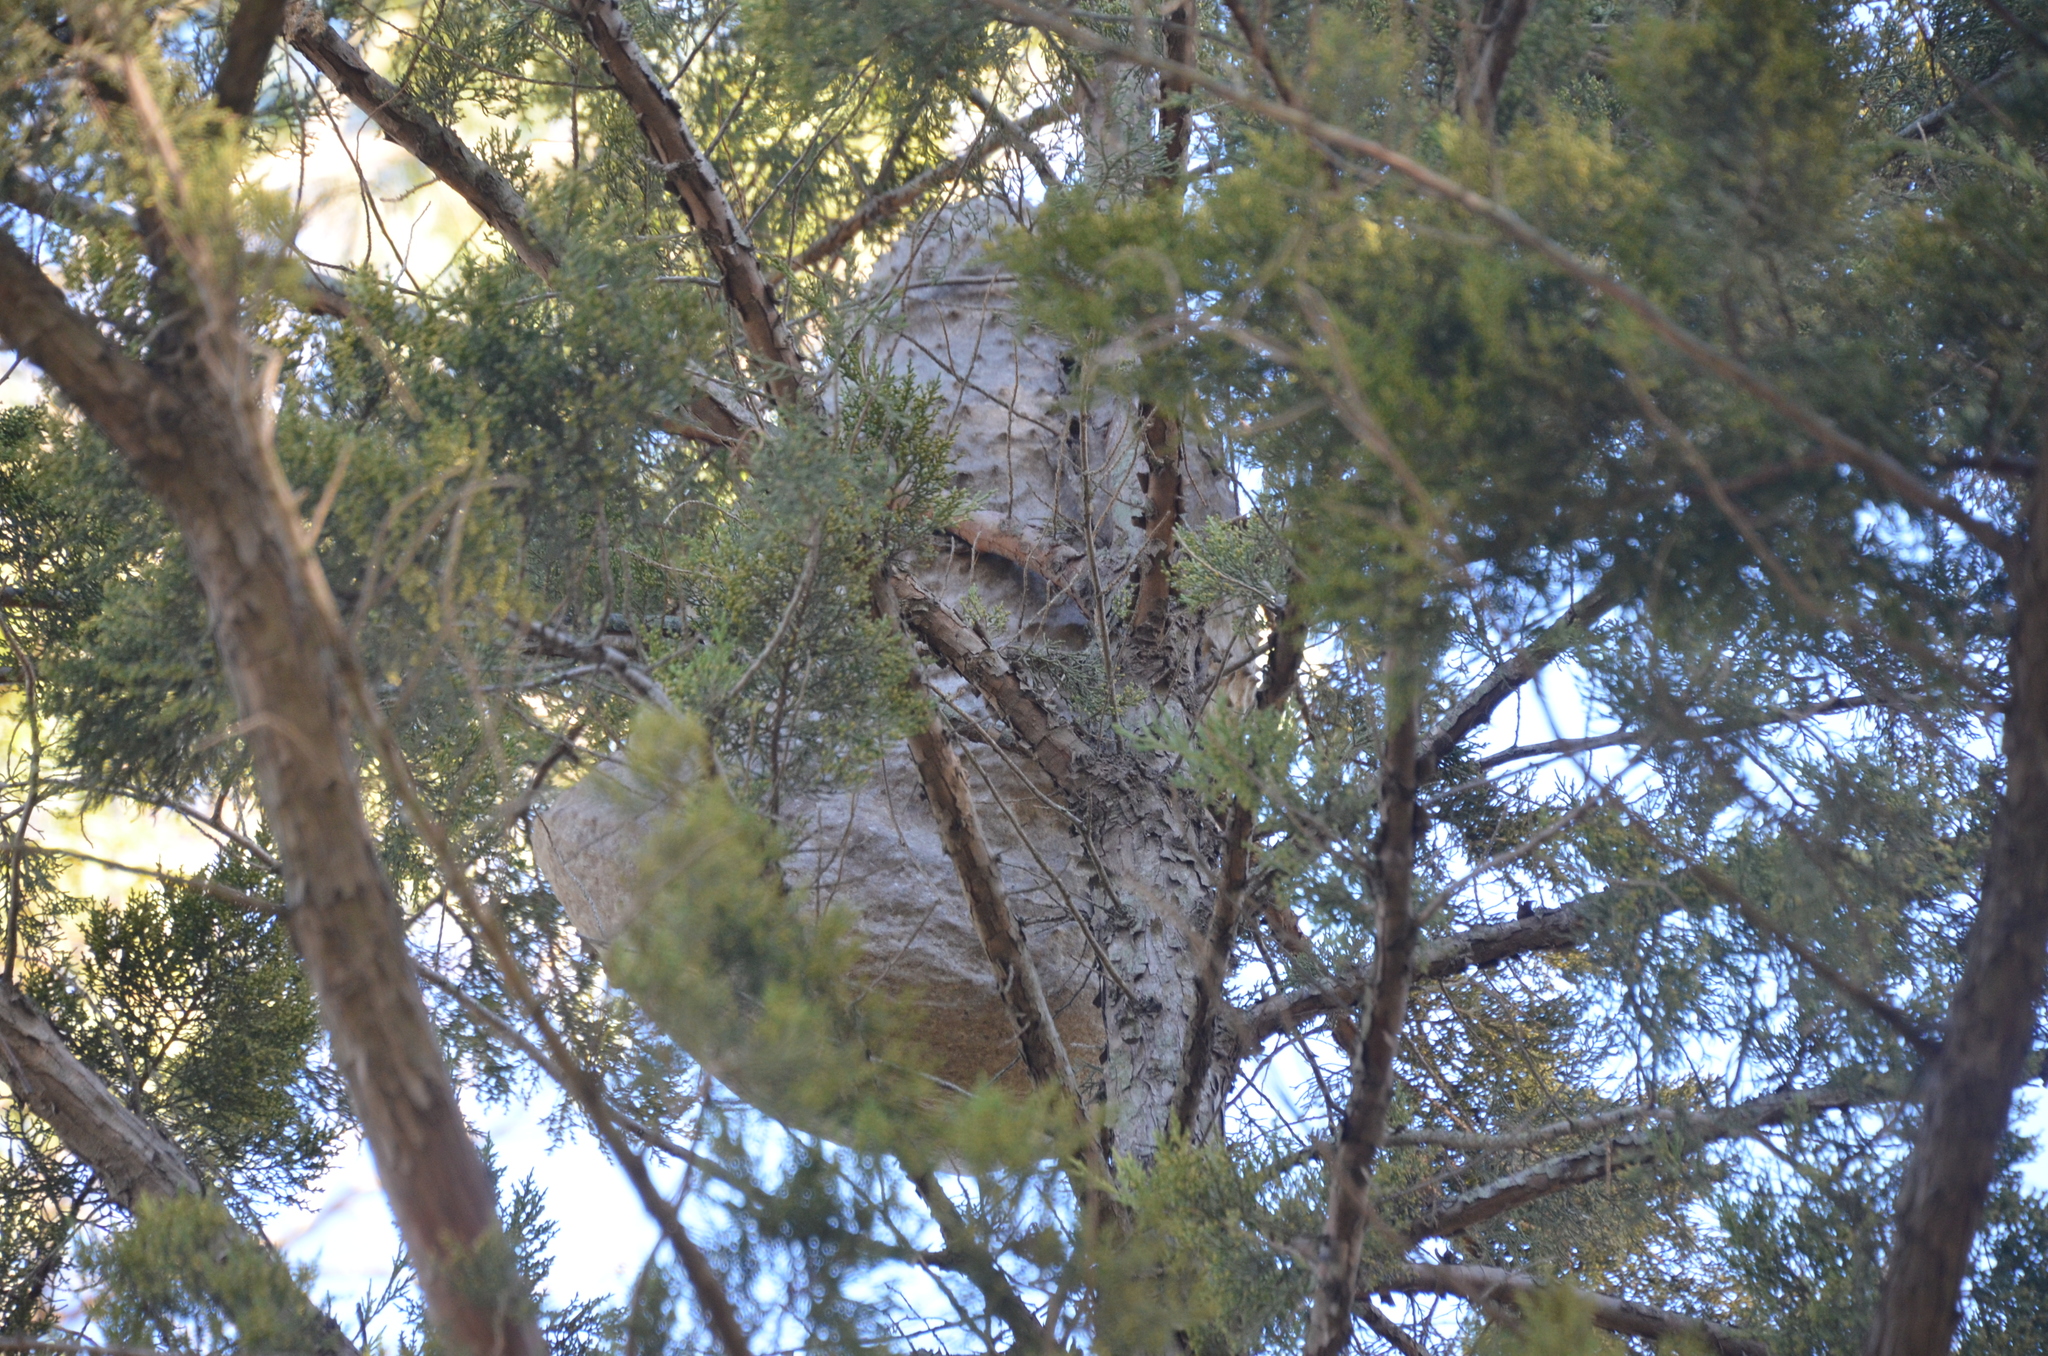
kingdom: Animalia
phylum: Arthropoda
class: Insecta
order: Hymenoptera
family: Eumenidae
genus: Polybia
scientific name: Polybia scutellaris
